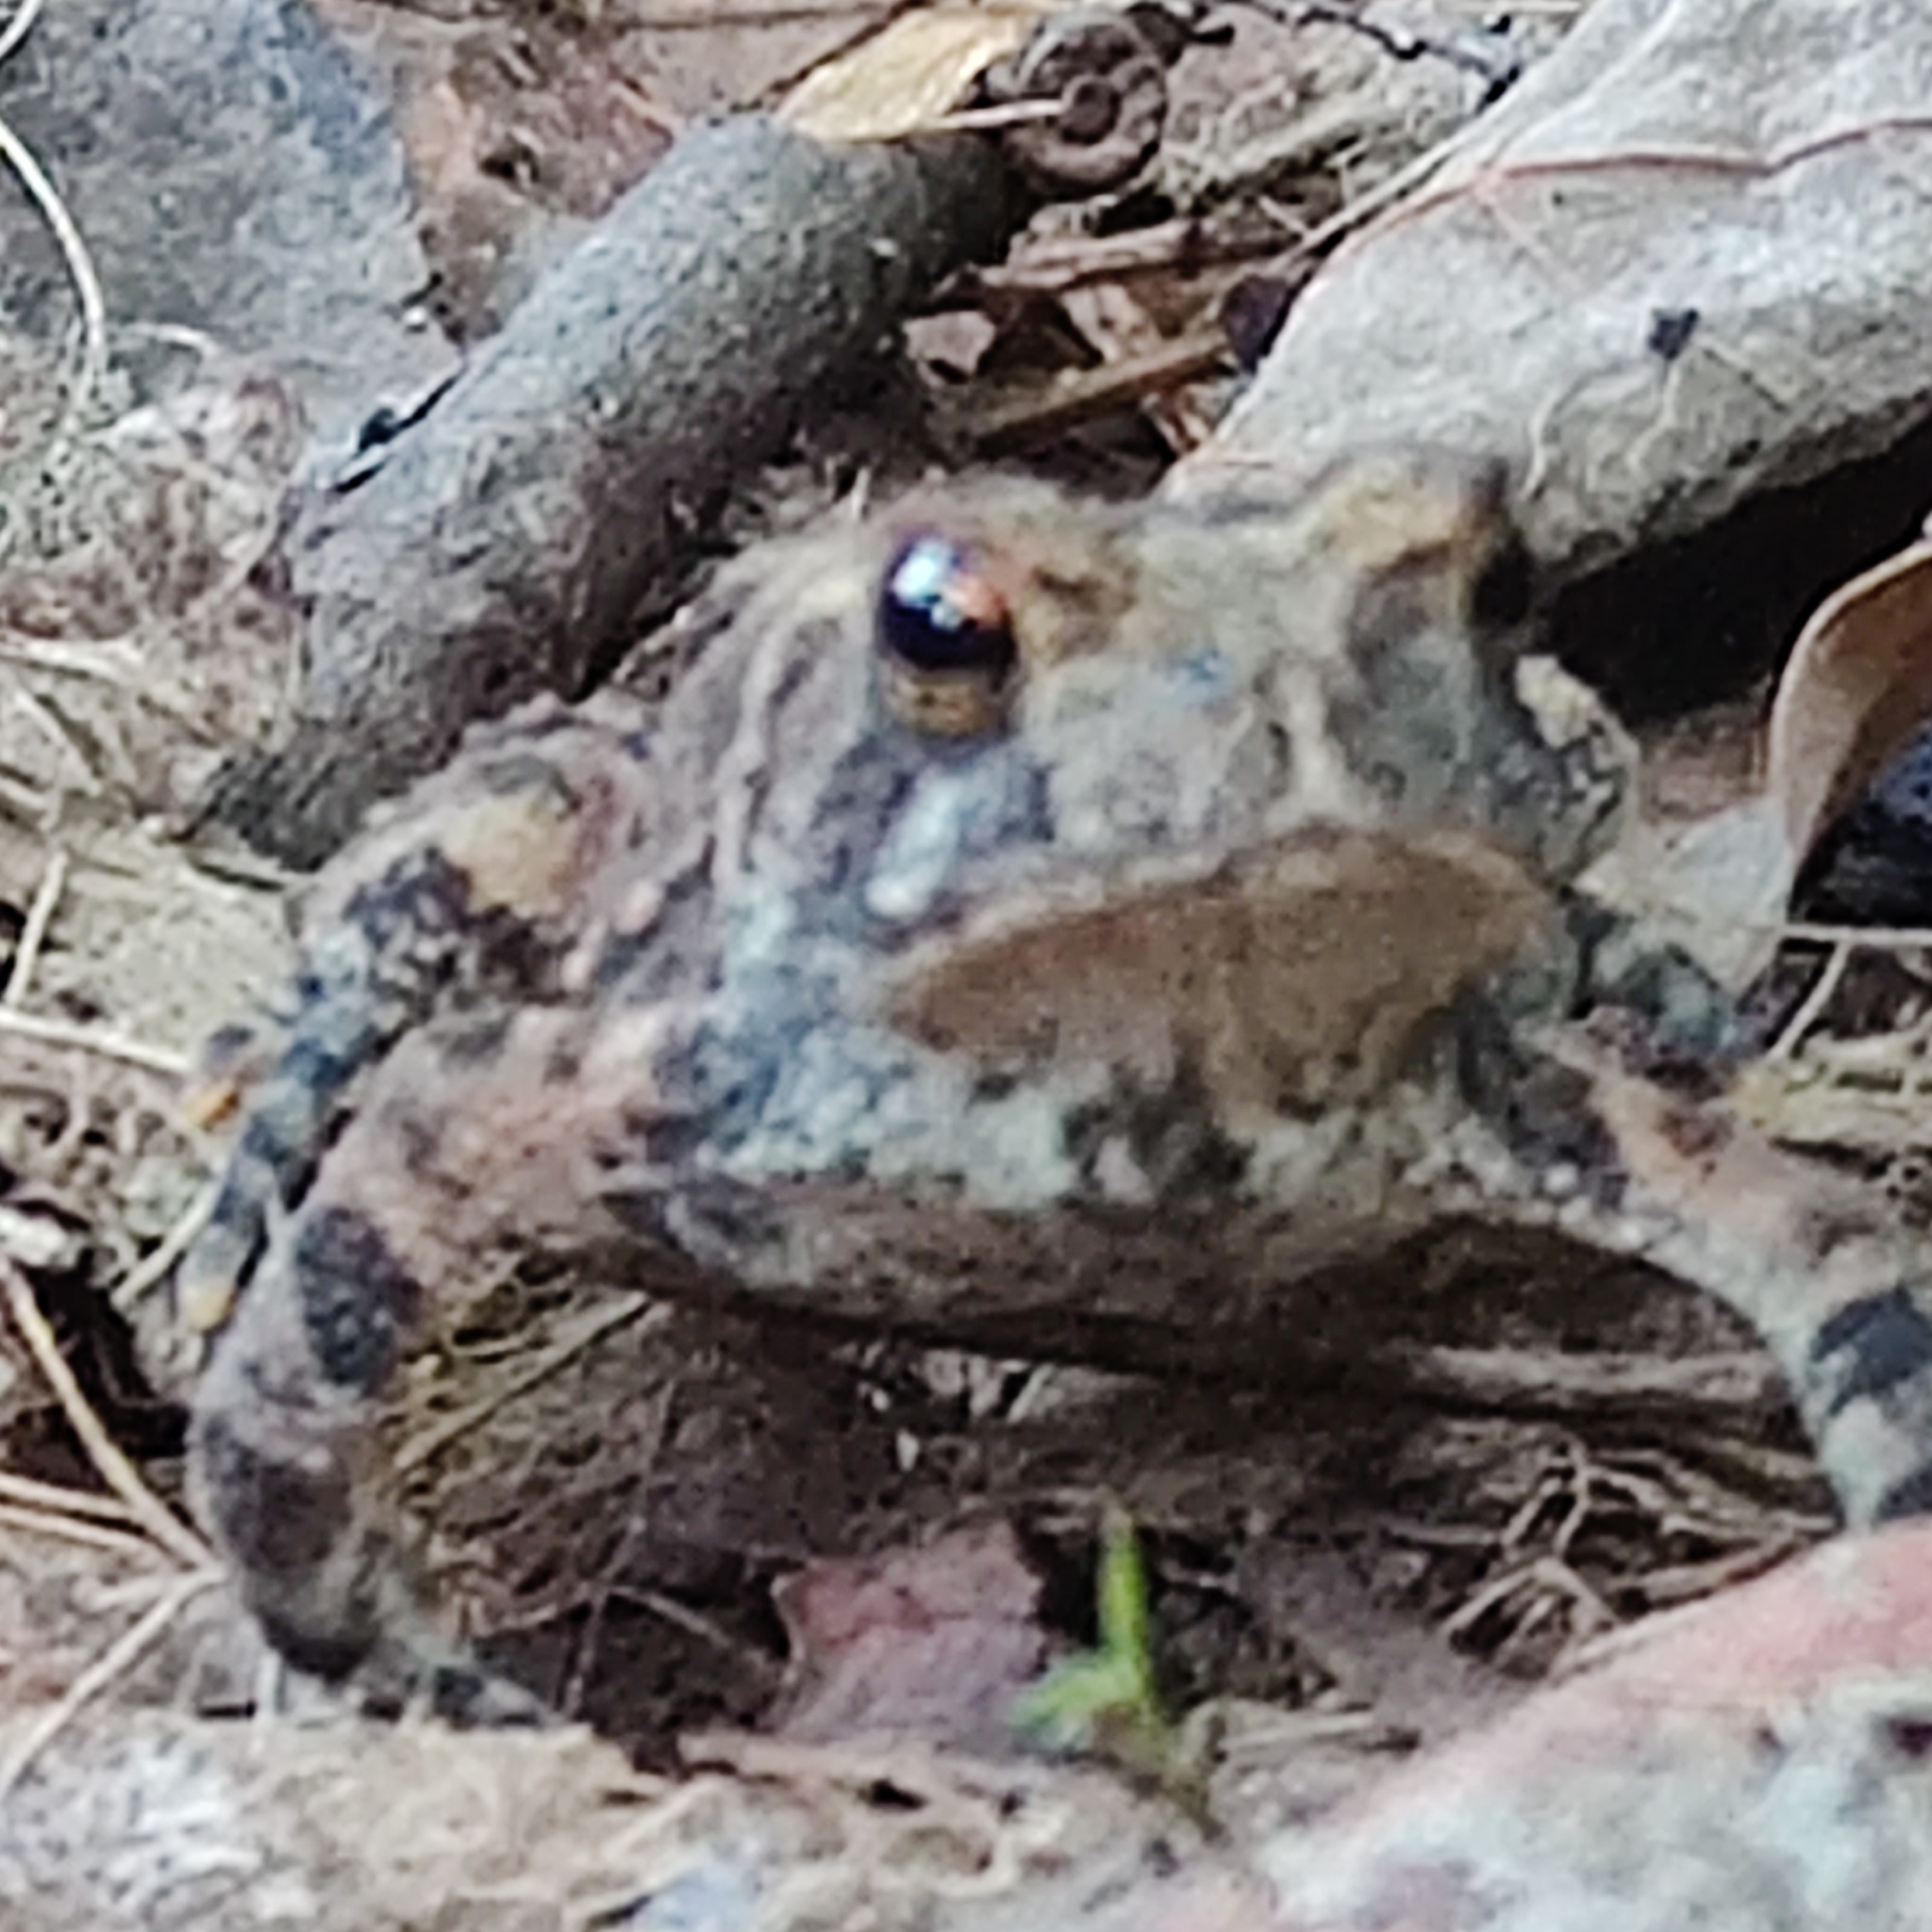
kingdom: Animalia
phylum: Chordata
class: Amphibia
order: Anura
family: Bufonidae
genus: Anaxyrus
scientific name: Anaxyrus americanus
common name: American toad
